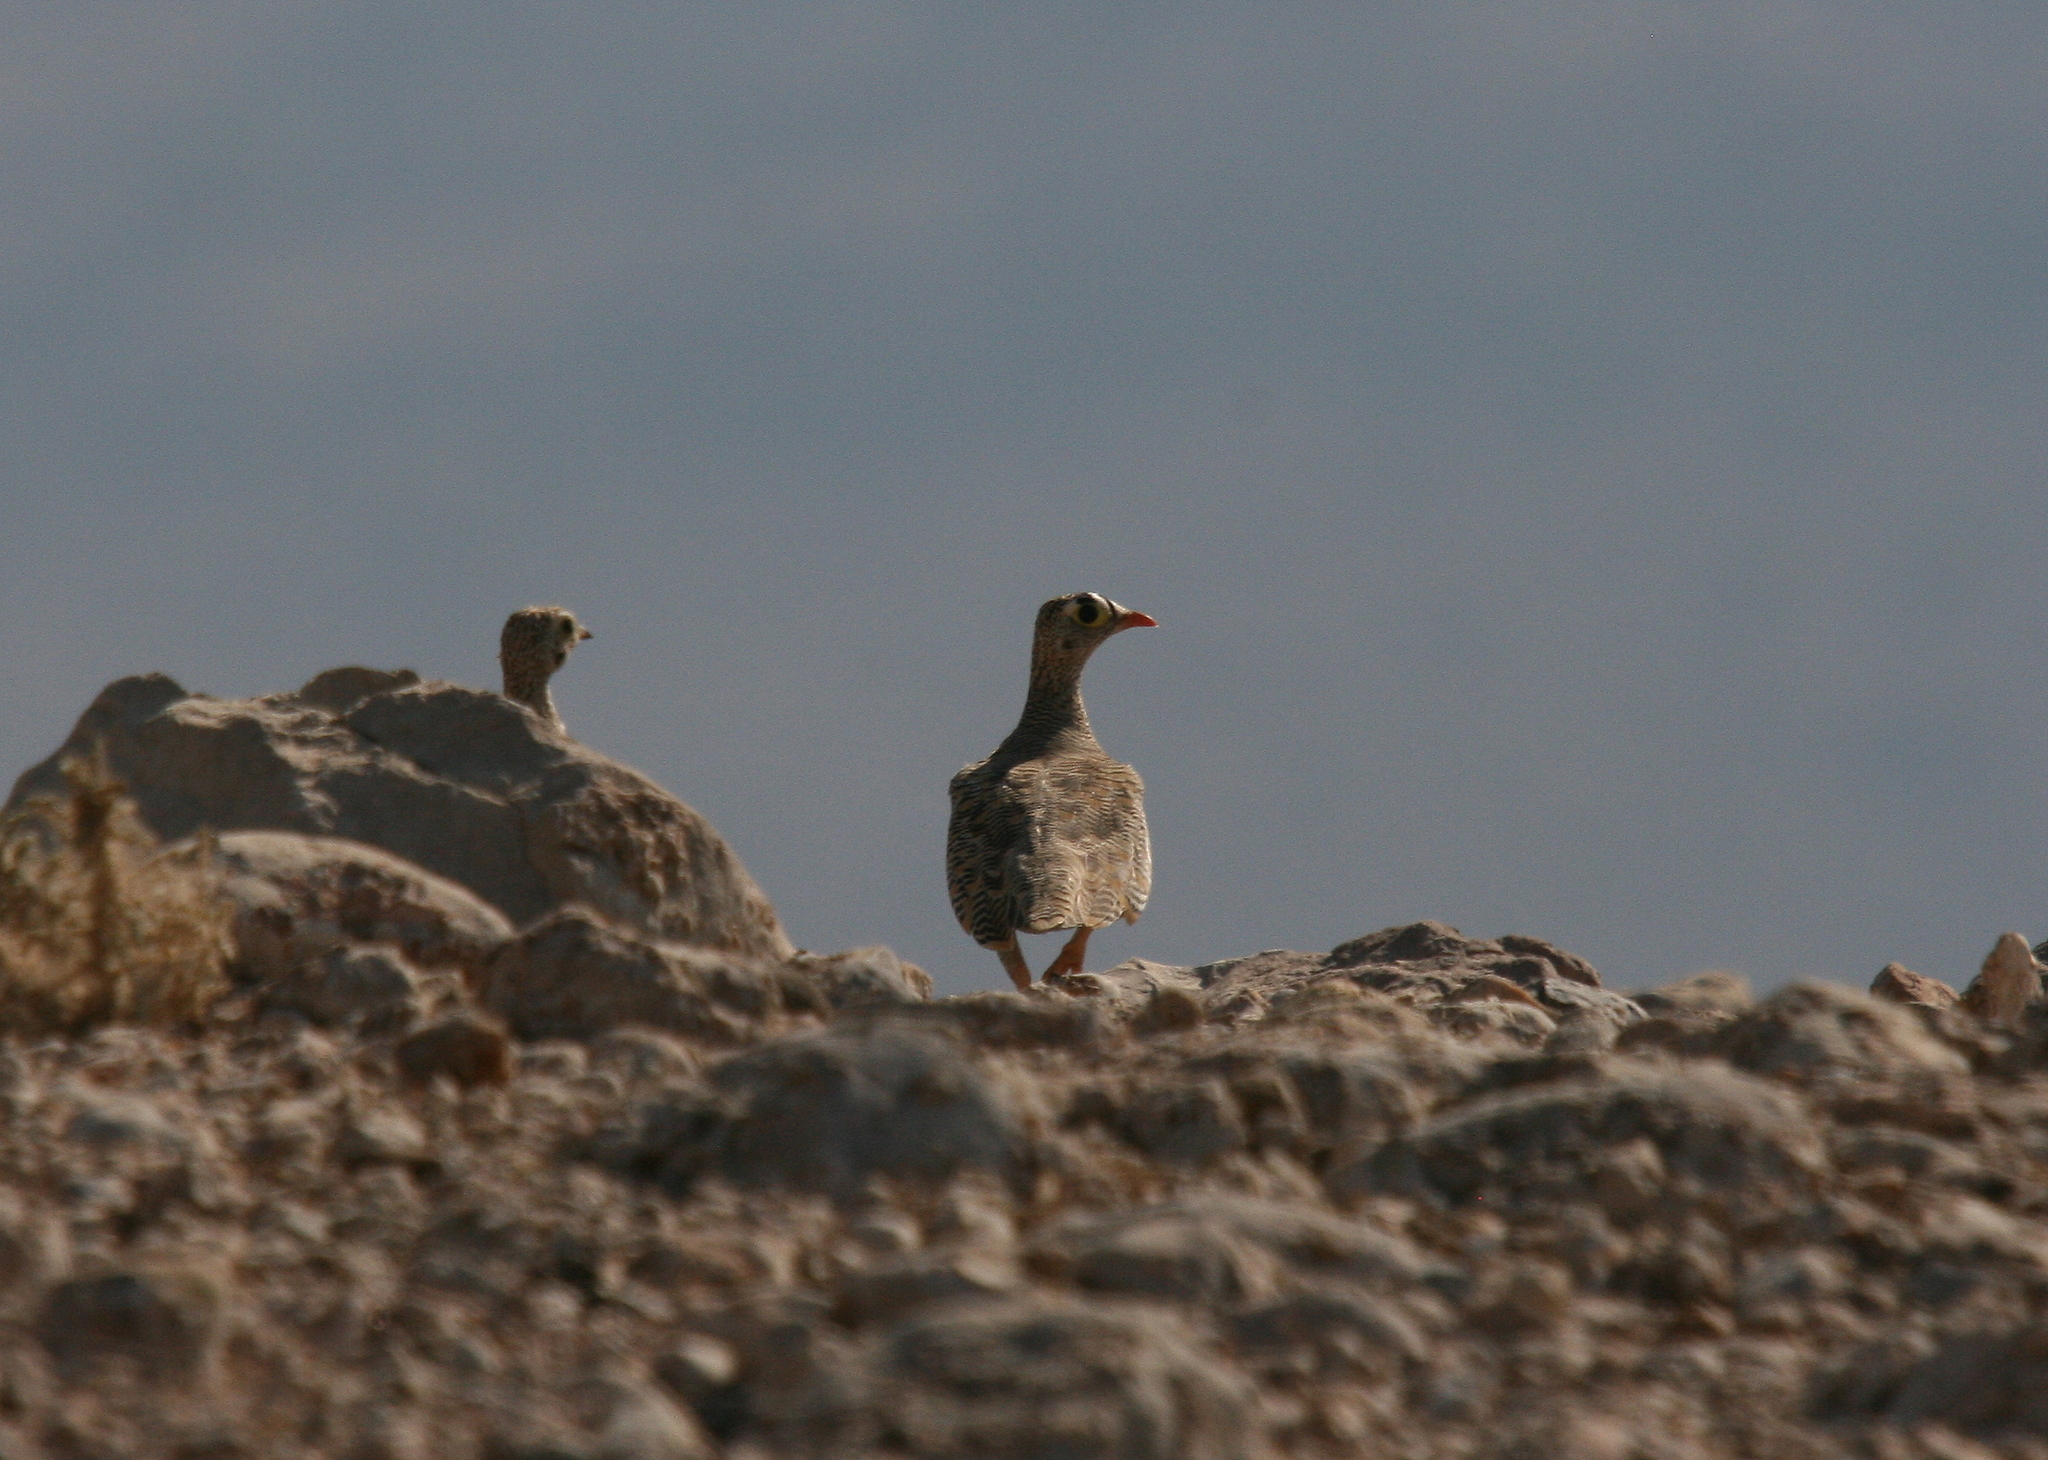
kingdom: Animalia
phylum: Chordata
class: Aves
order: Pteroclidiformes
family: Pteroclididae
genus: Pterocles
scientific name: Pterocles lichtensteinii
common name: Lichtenstein's sandgrouse
